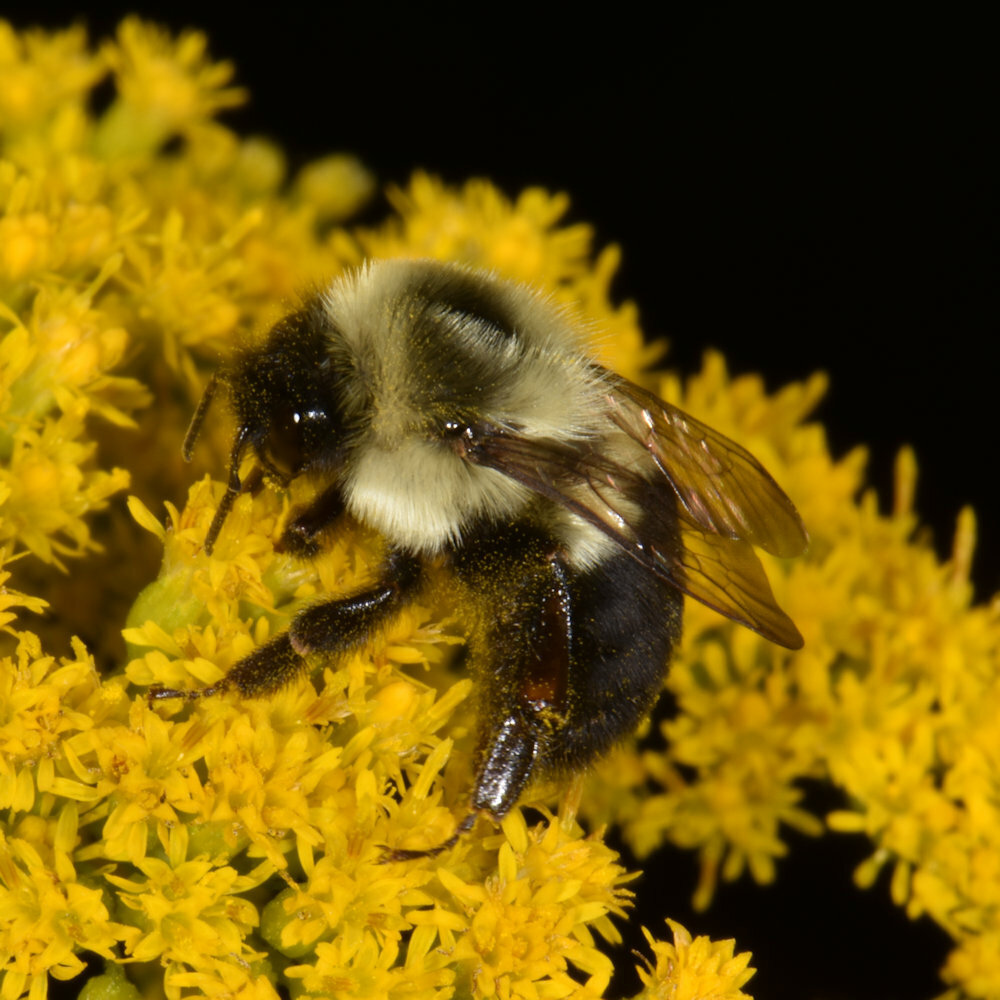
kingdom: Animalia
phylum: Arthropoda
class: Insecta
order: Hymenoptera
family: Apidae
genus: Bombus
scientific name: Bombus impatiens
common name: Common eastern bumble bee
